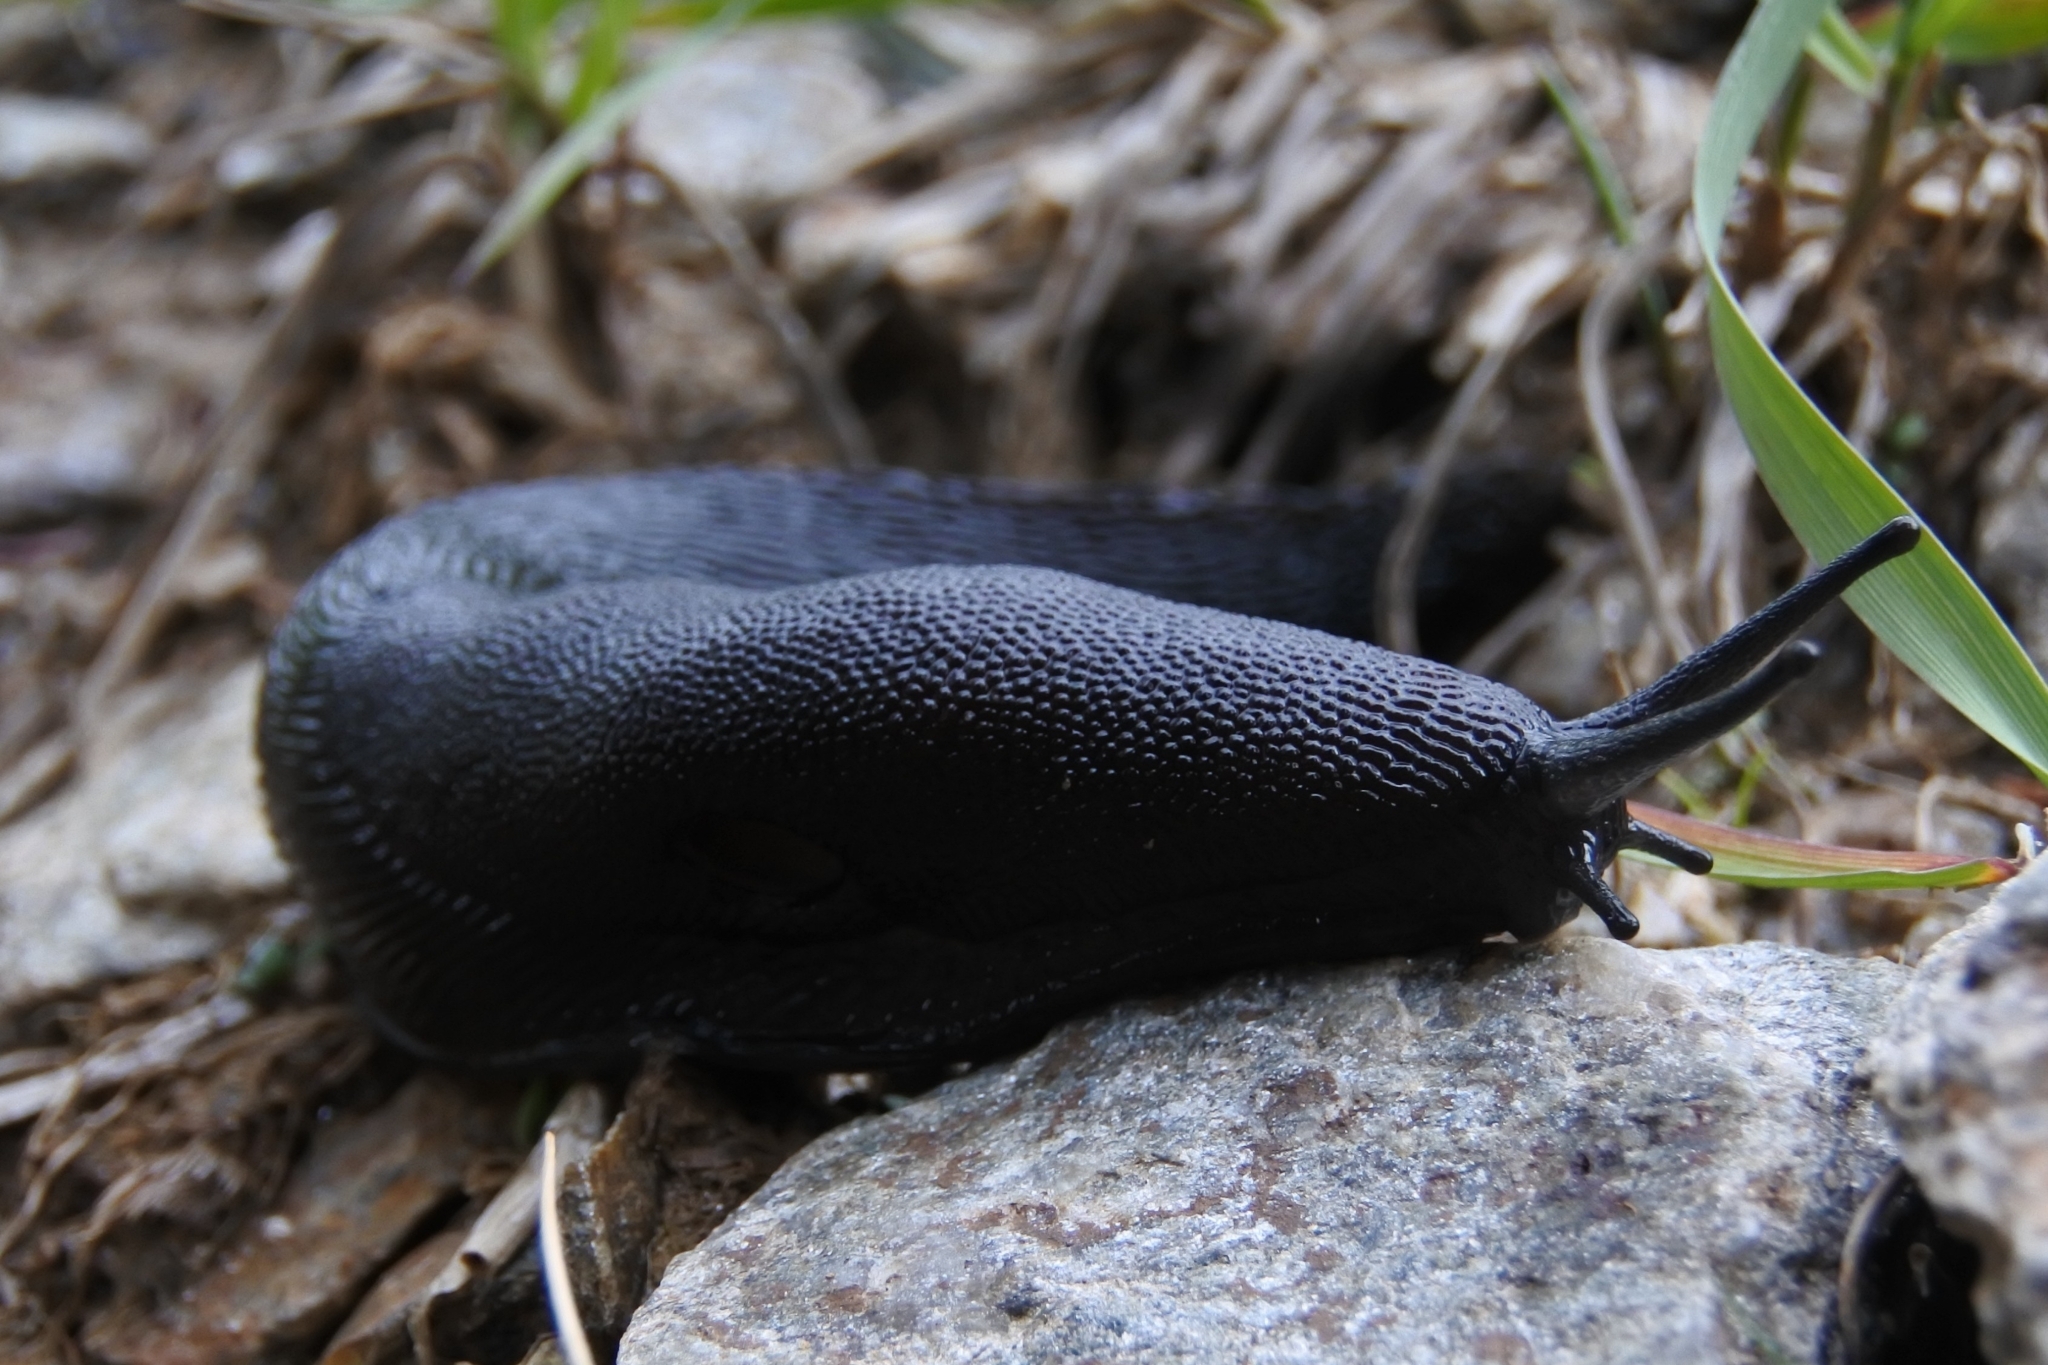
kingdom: Animalia
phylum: Mollusca
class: Gastropoda
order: Stylommatophora
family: Limacidae
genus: Eumilax
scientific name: Eumilax brandti
